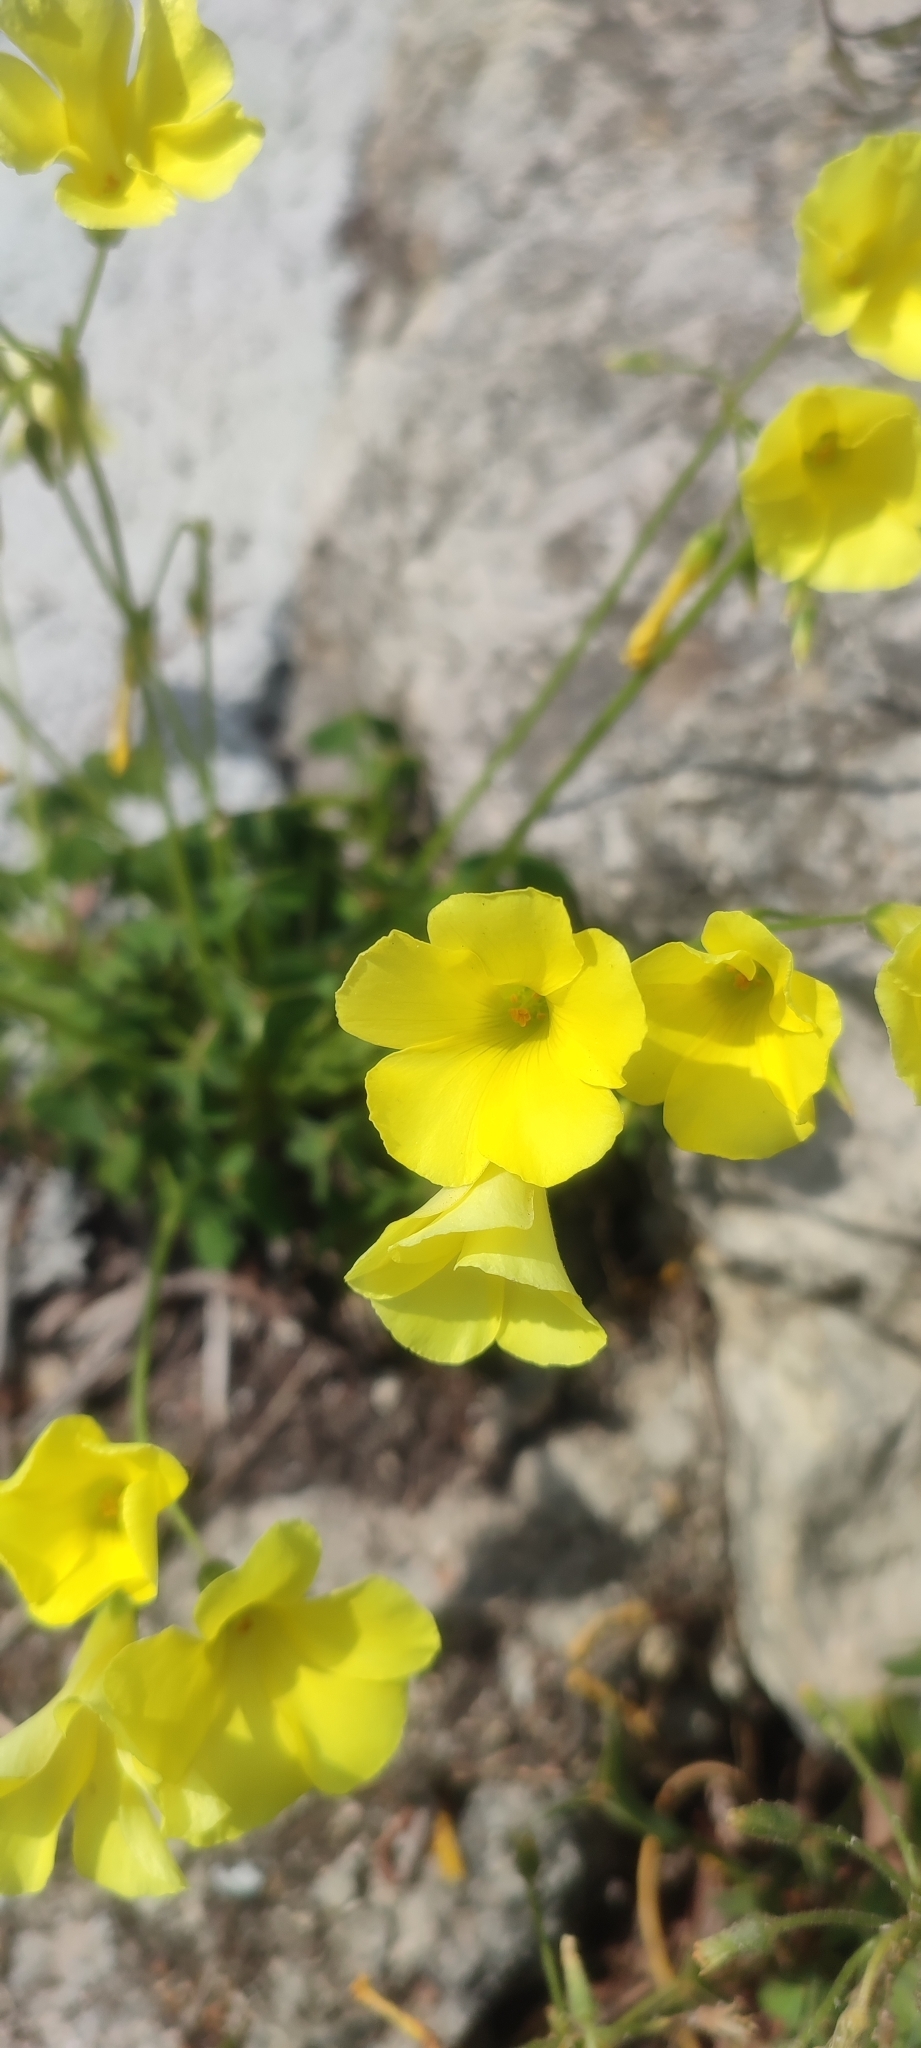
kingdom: Plantae
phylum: Tracheophyta
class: Magnoliopsida
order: Oxalidales
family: Oxalidaceae
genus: Oxalis
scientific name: Oxalis pes-caprae
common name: Bermuda-buttercup
